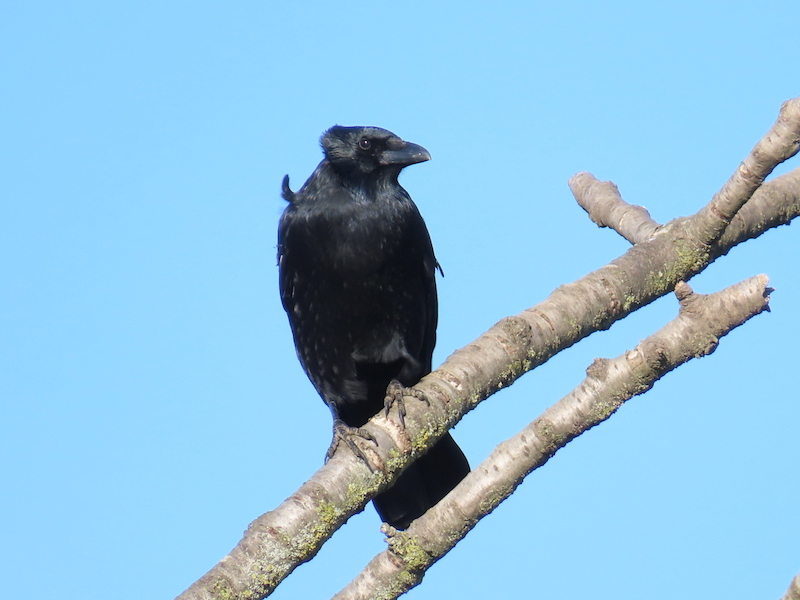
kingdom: Animalia
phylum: Chordata
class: Aves
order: Passeriformes
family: Corvidae
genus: Corvus
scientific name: Corvus corone
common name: Carrion crow
